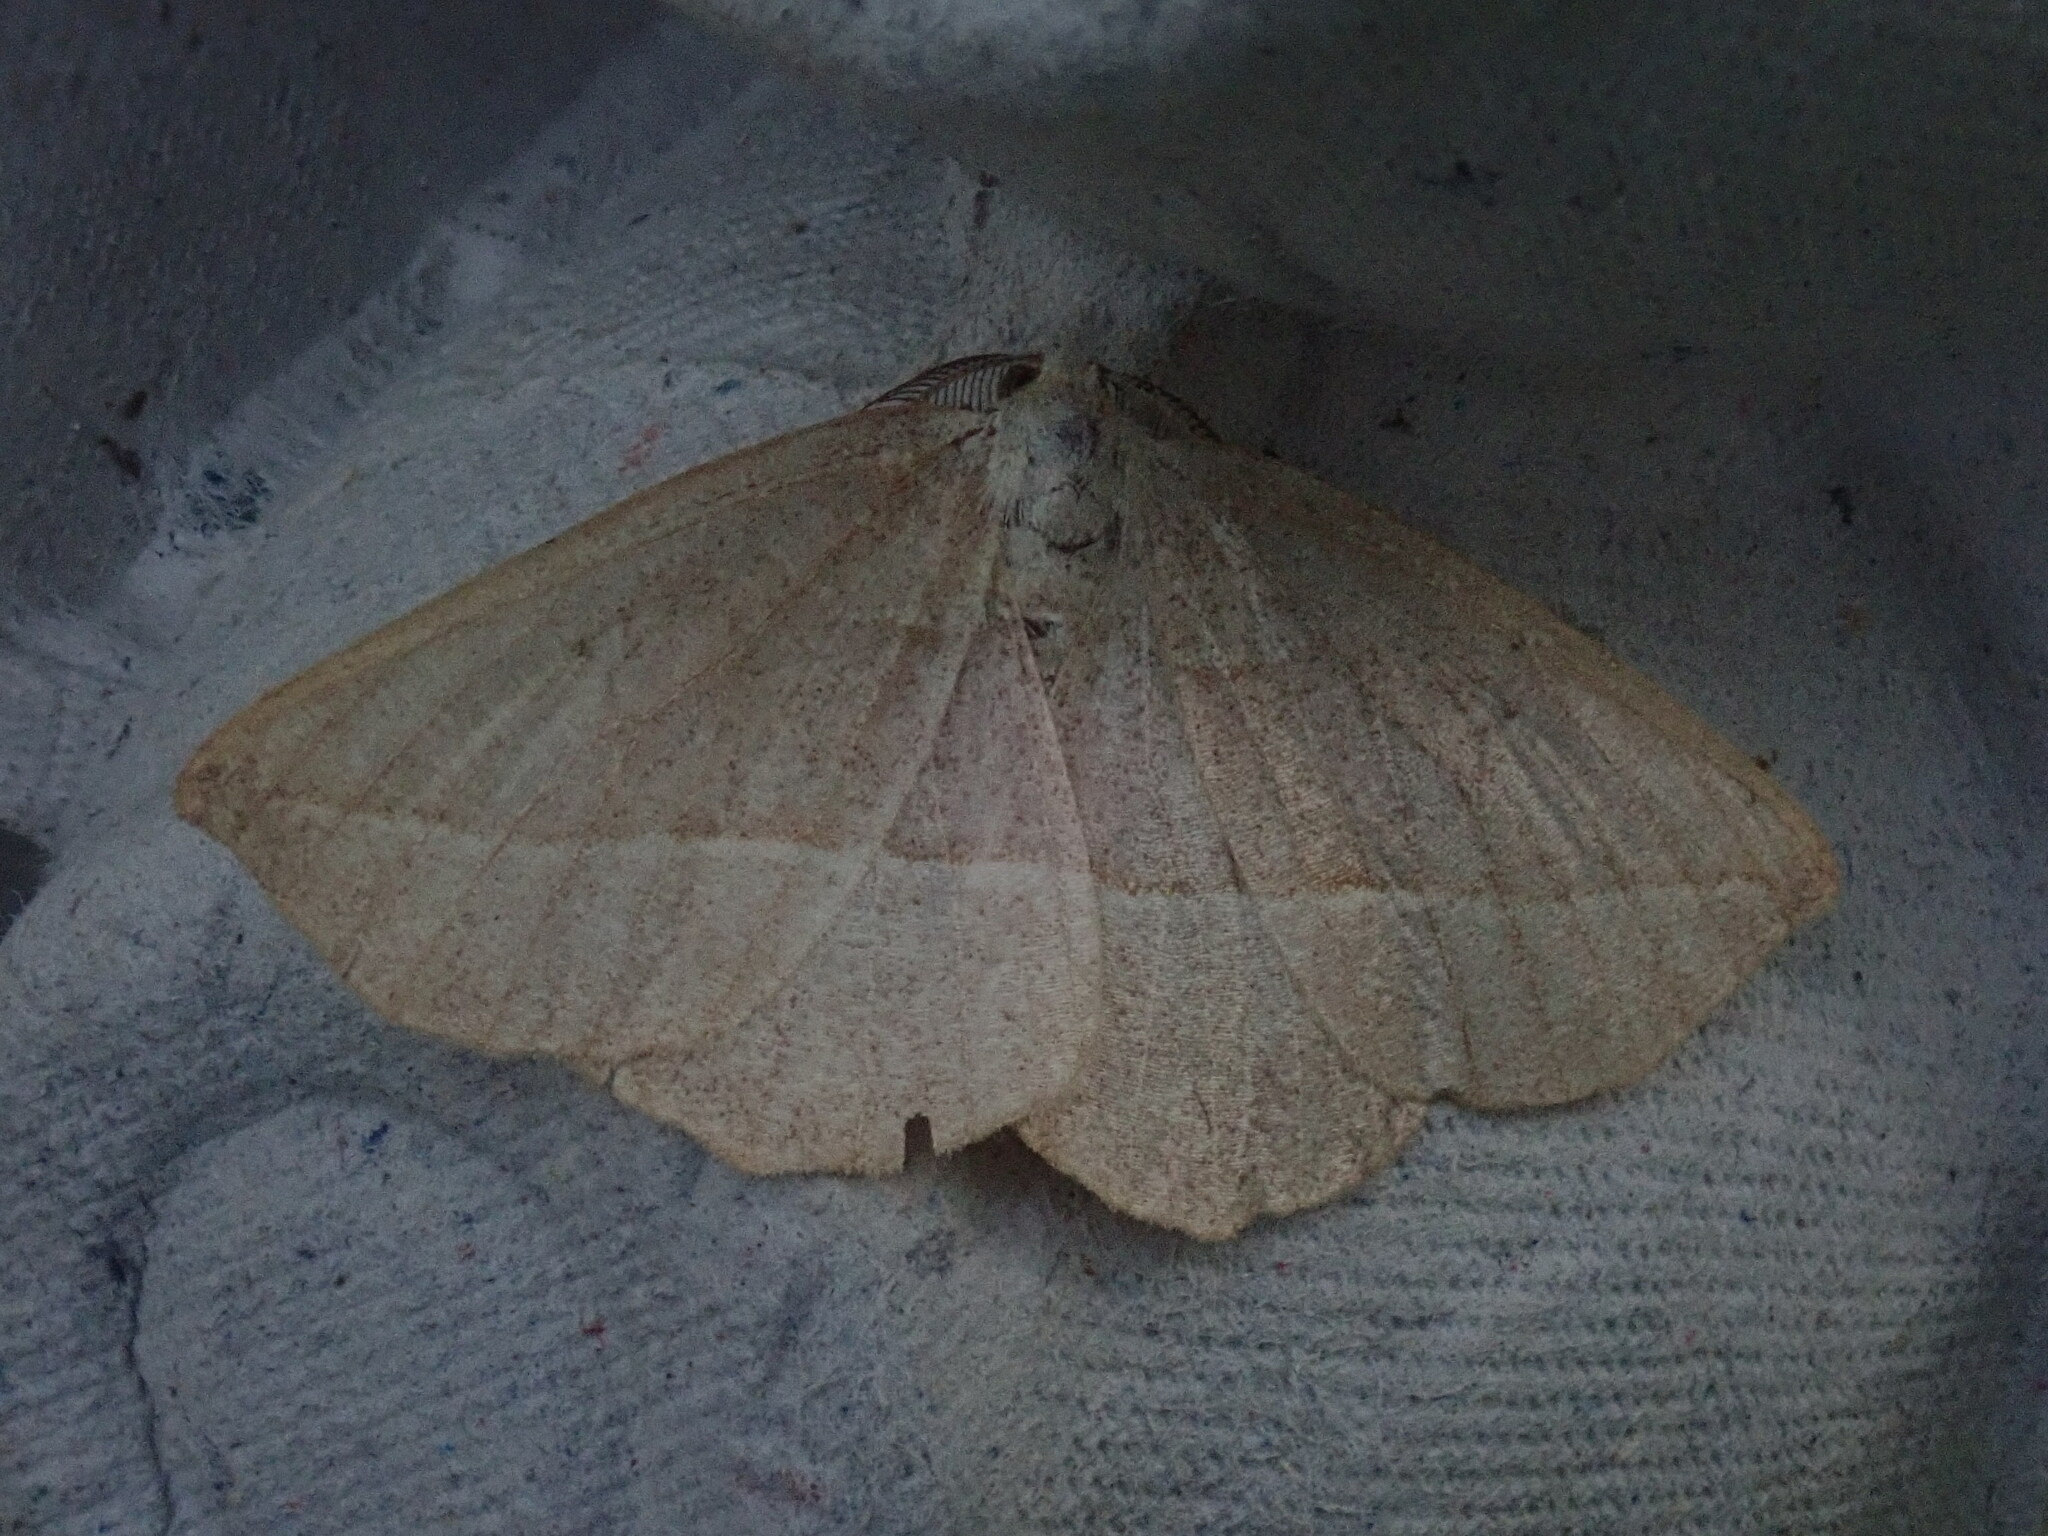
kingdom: Animalia
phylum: Arthropoda
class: Insecta
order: Lepidoptera
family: Geometridae
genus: Eusarca
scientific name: Eusarca confusaria
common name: Confused eusarca
